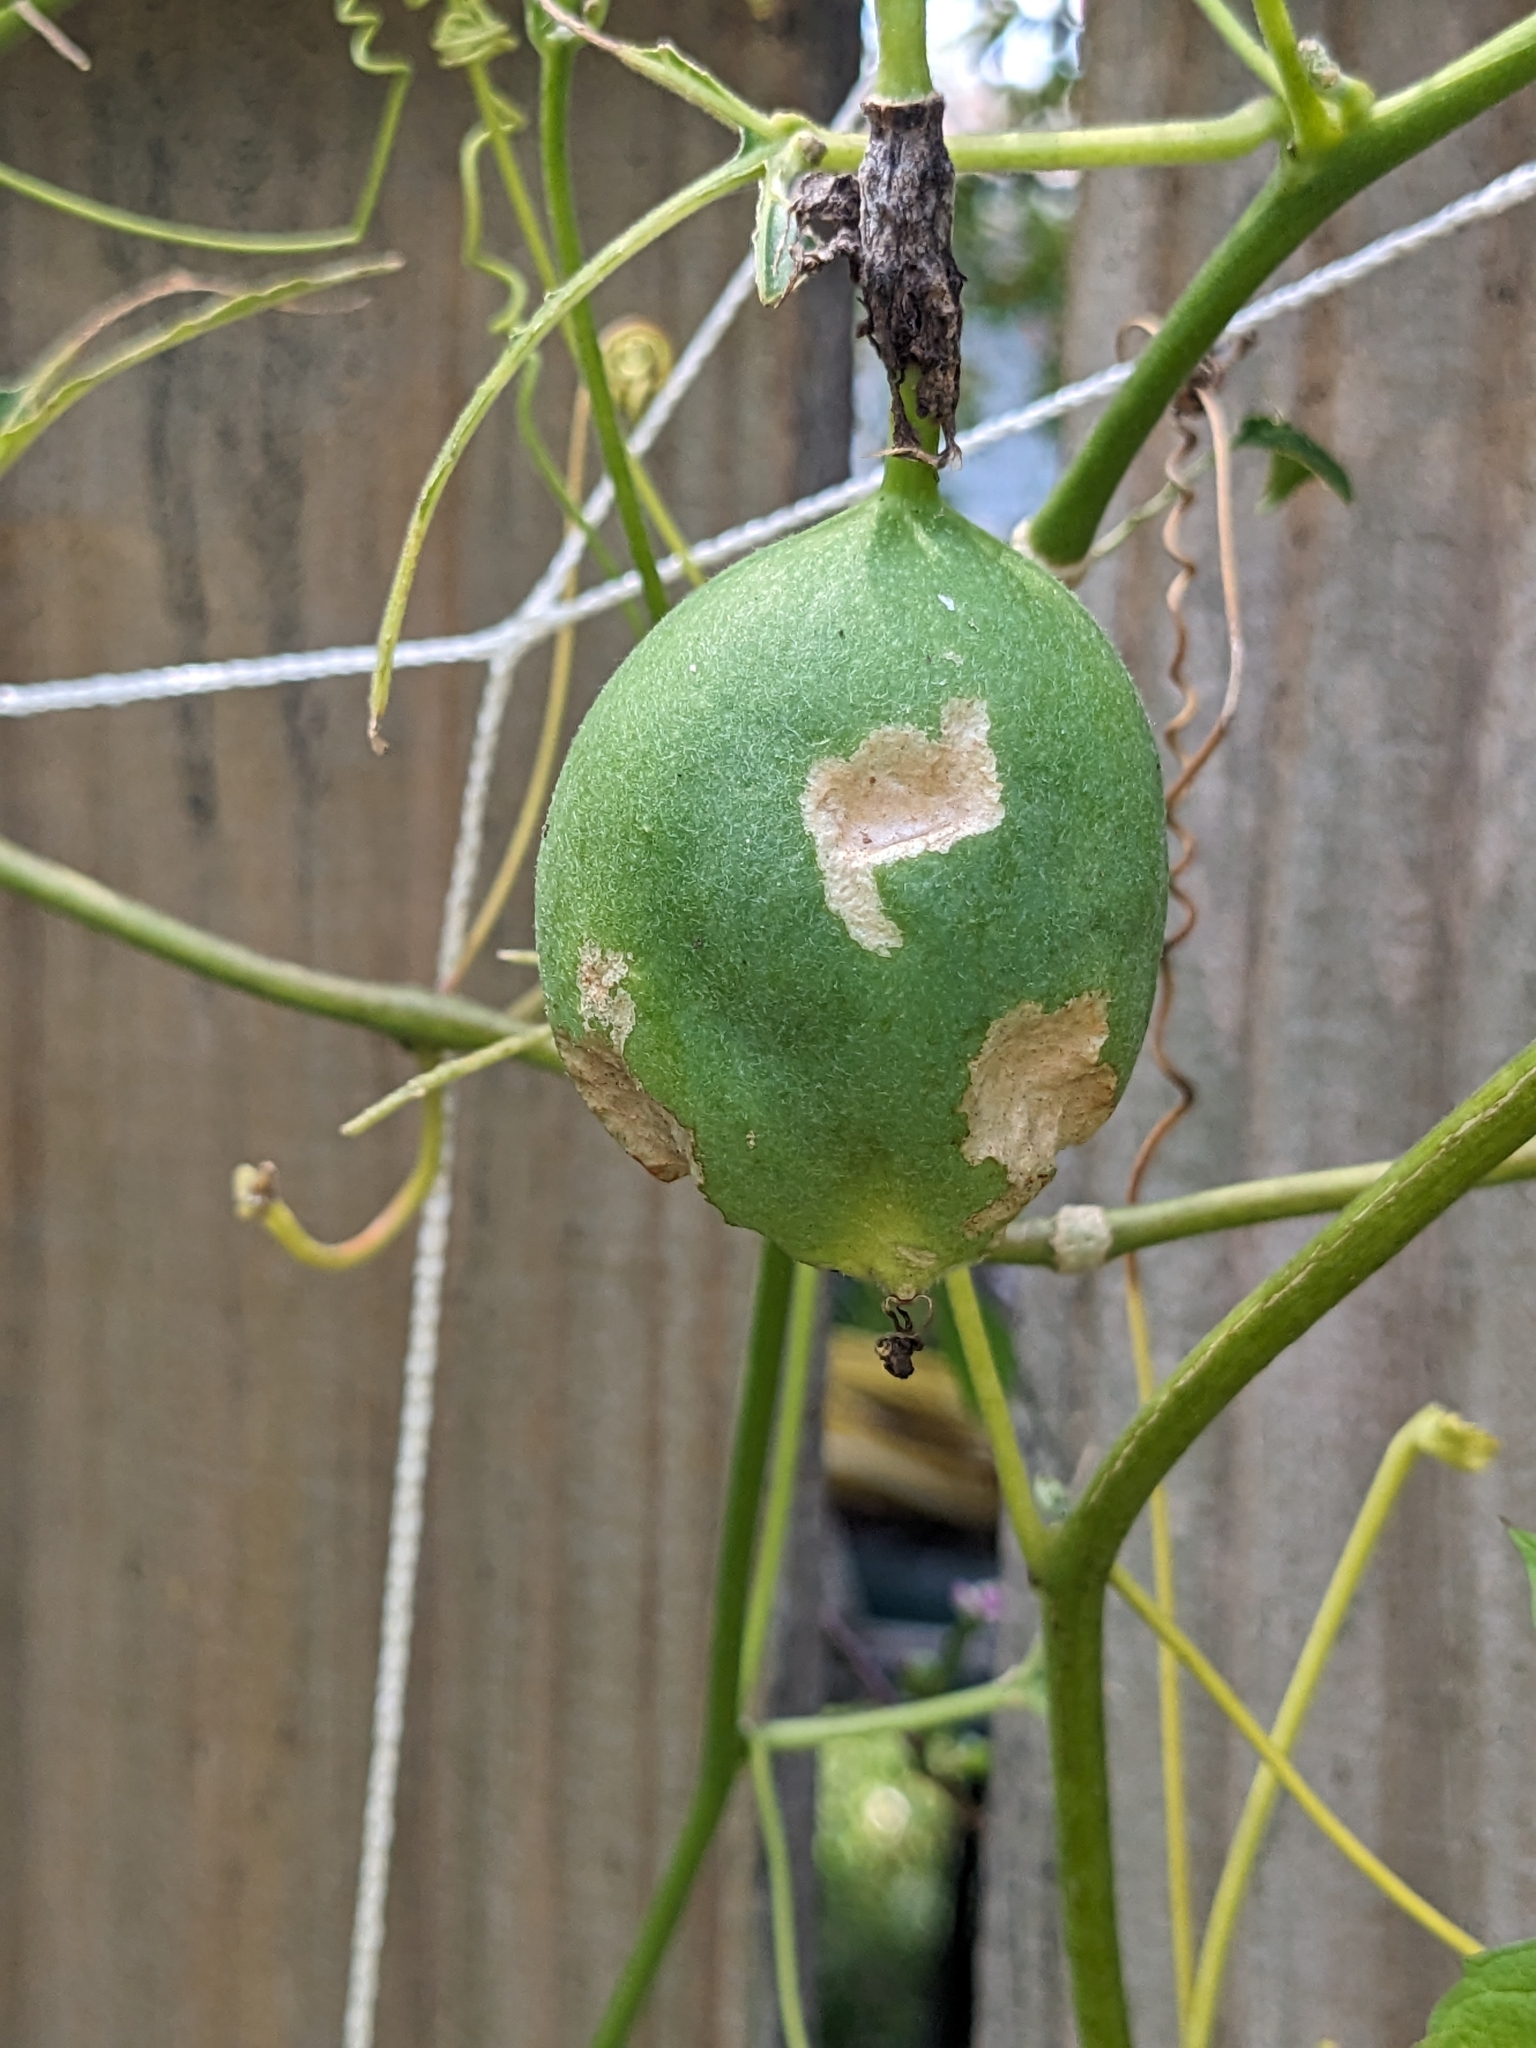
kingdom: Animalia
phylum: Arthropoda
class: Insecta
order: Lepidoptera
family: Nymphalidae
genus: Dione
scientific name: Dione vanillae
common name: Gulf fritillary
